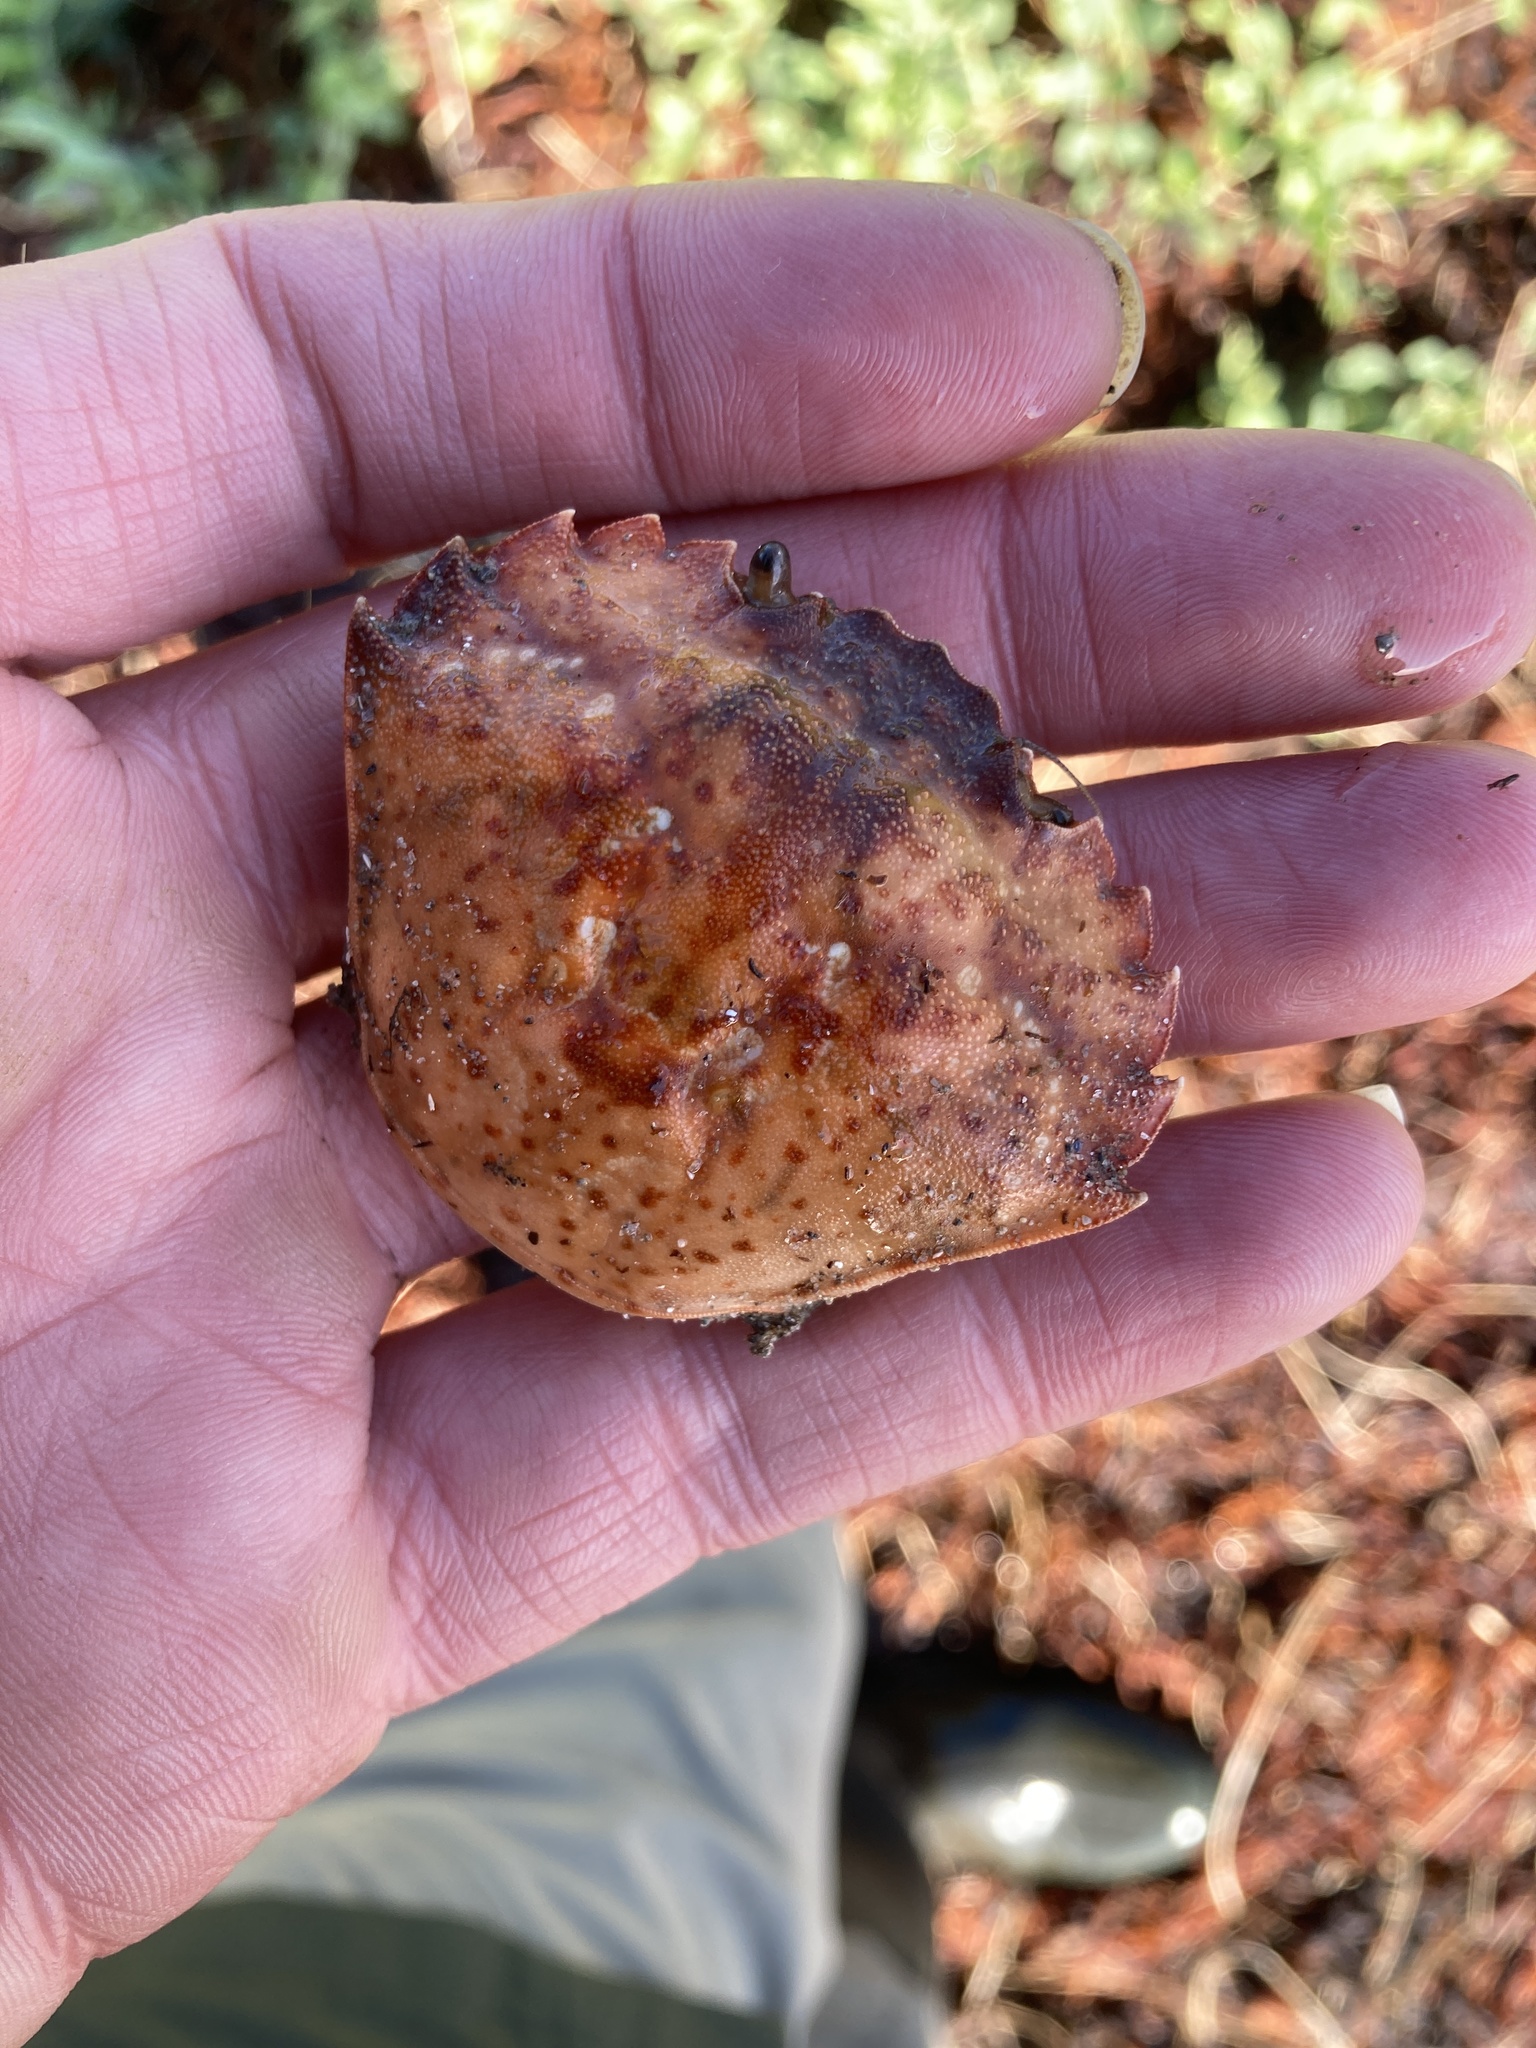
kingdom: Animalia
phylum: Arthropoda
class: Malacostraca
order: Decapoda
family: Carcinidae
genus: Carcinus
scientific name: Carcinus maenas
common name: European green crab
